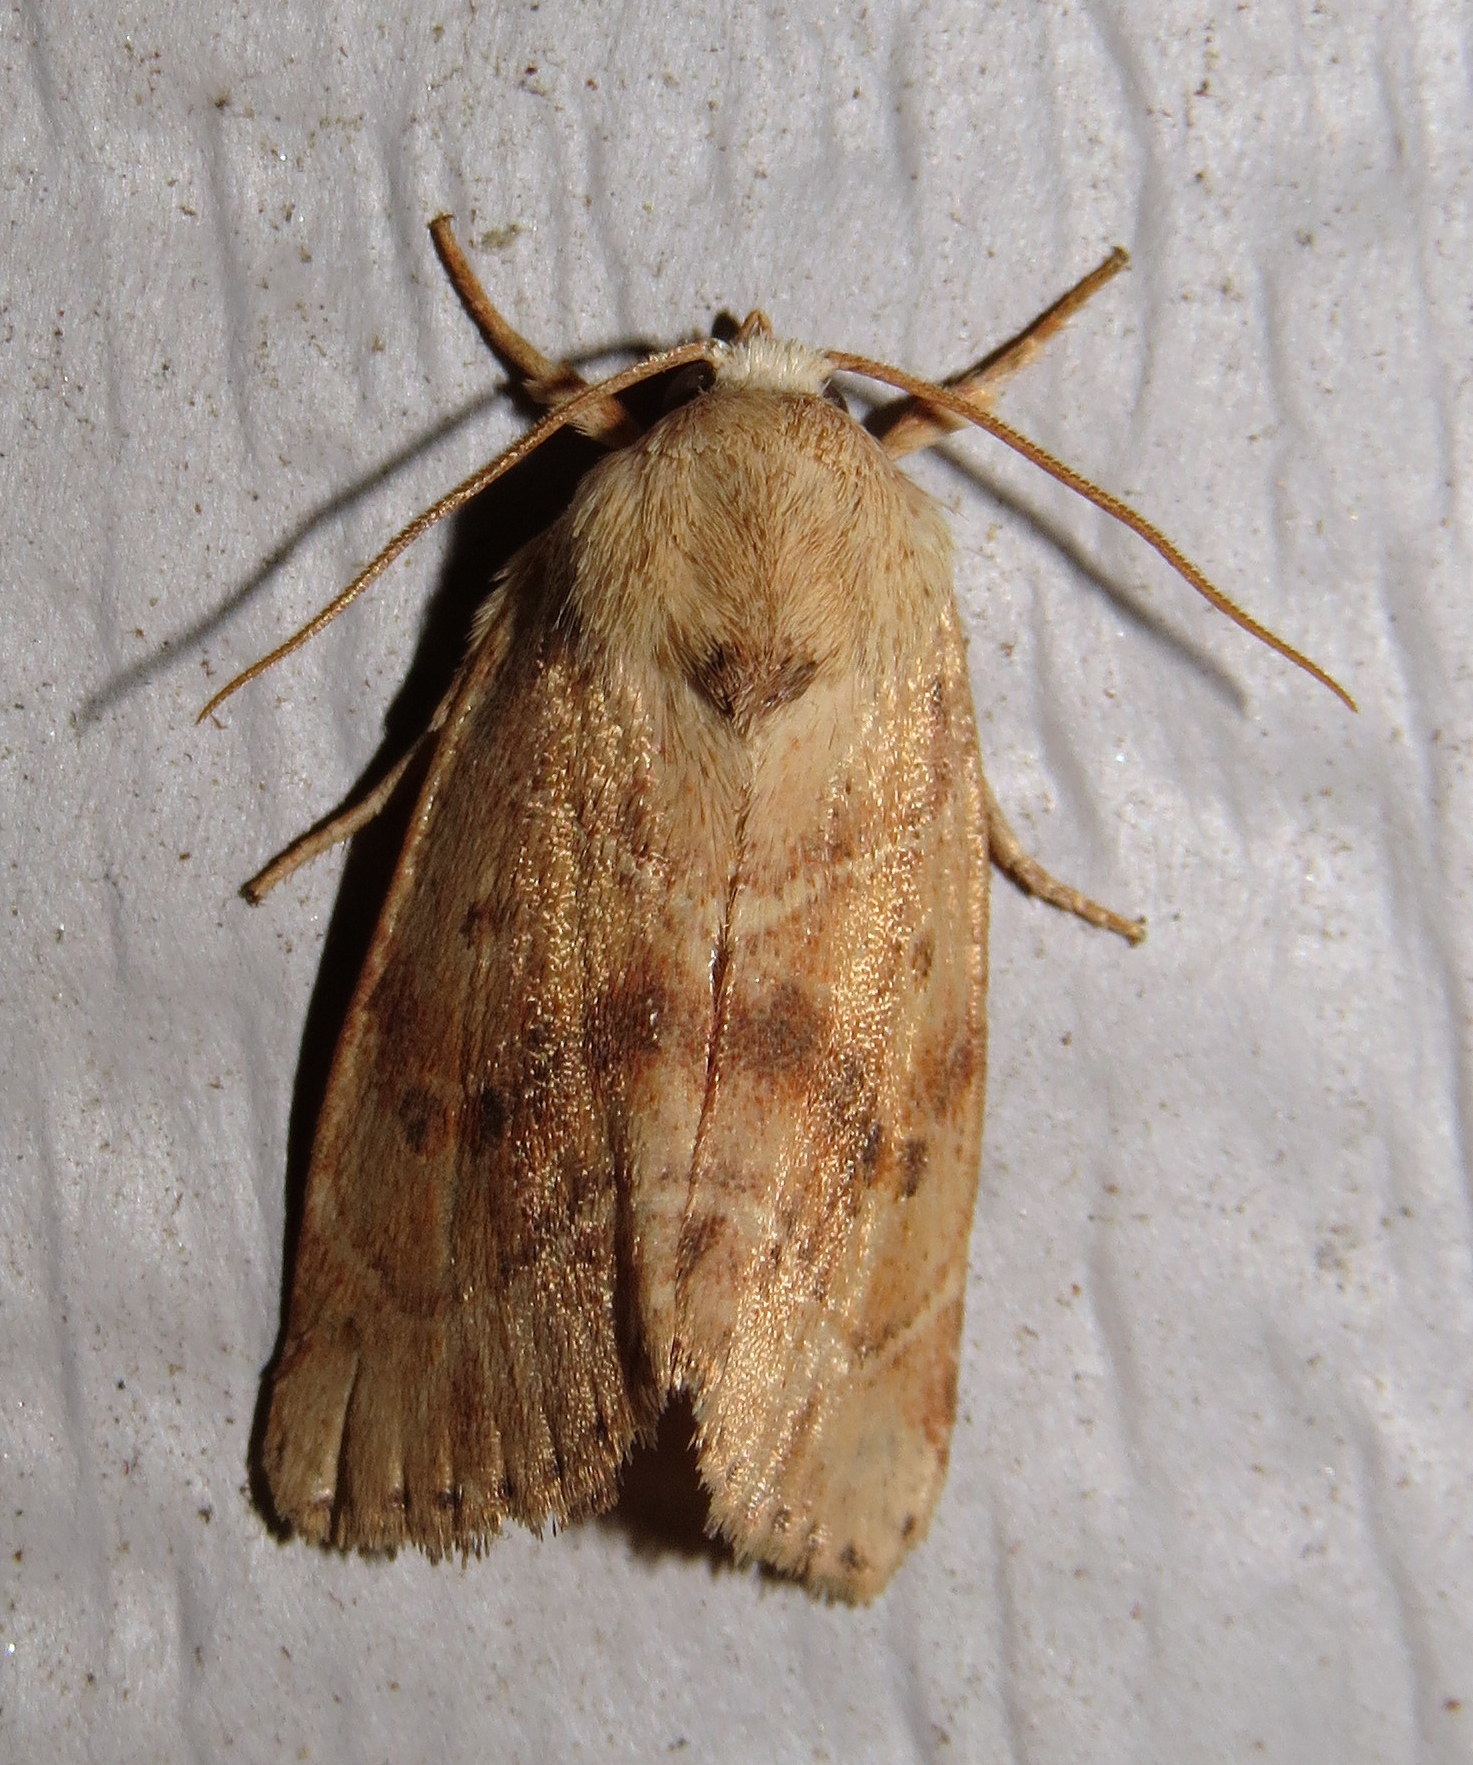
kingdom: Animalia
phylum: Arthropoda
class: Insecta
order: Lepidoptera
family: Noctuidae
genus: Cosmia
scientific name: Cosmia calami
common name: American dun-bar moth
